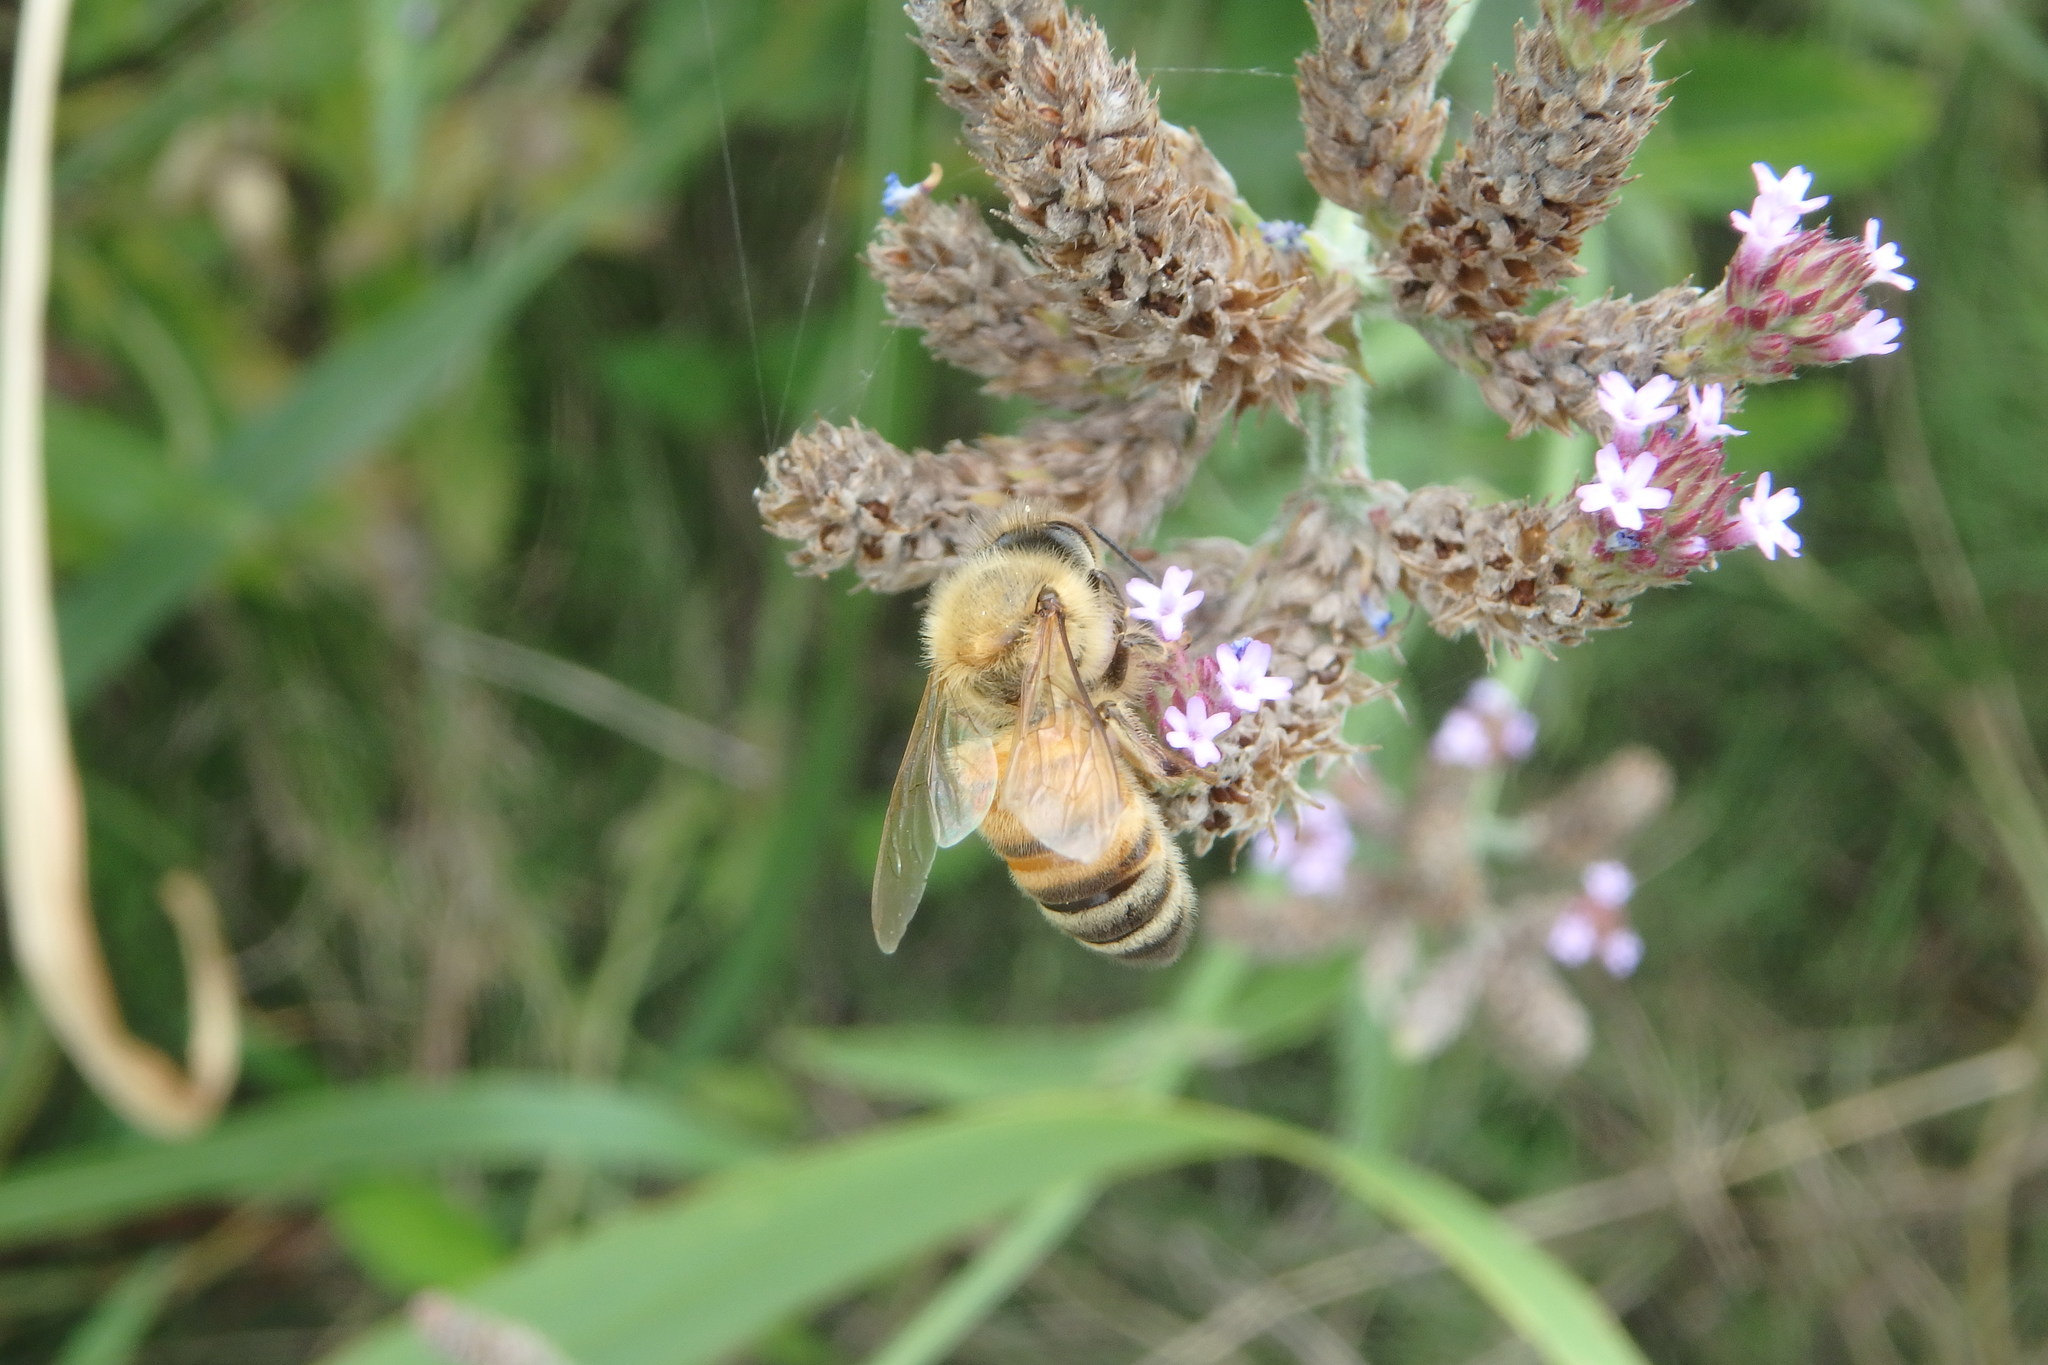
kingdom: Animalia
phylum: Arthropoda
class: Insecta
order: Hymenoptera
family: Apidae
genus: Apis
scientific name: Apis mellifera
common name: Honey bee
